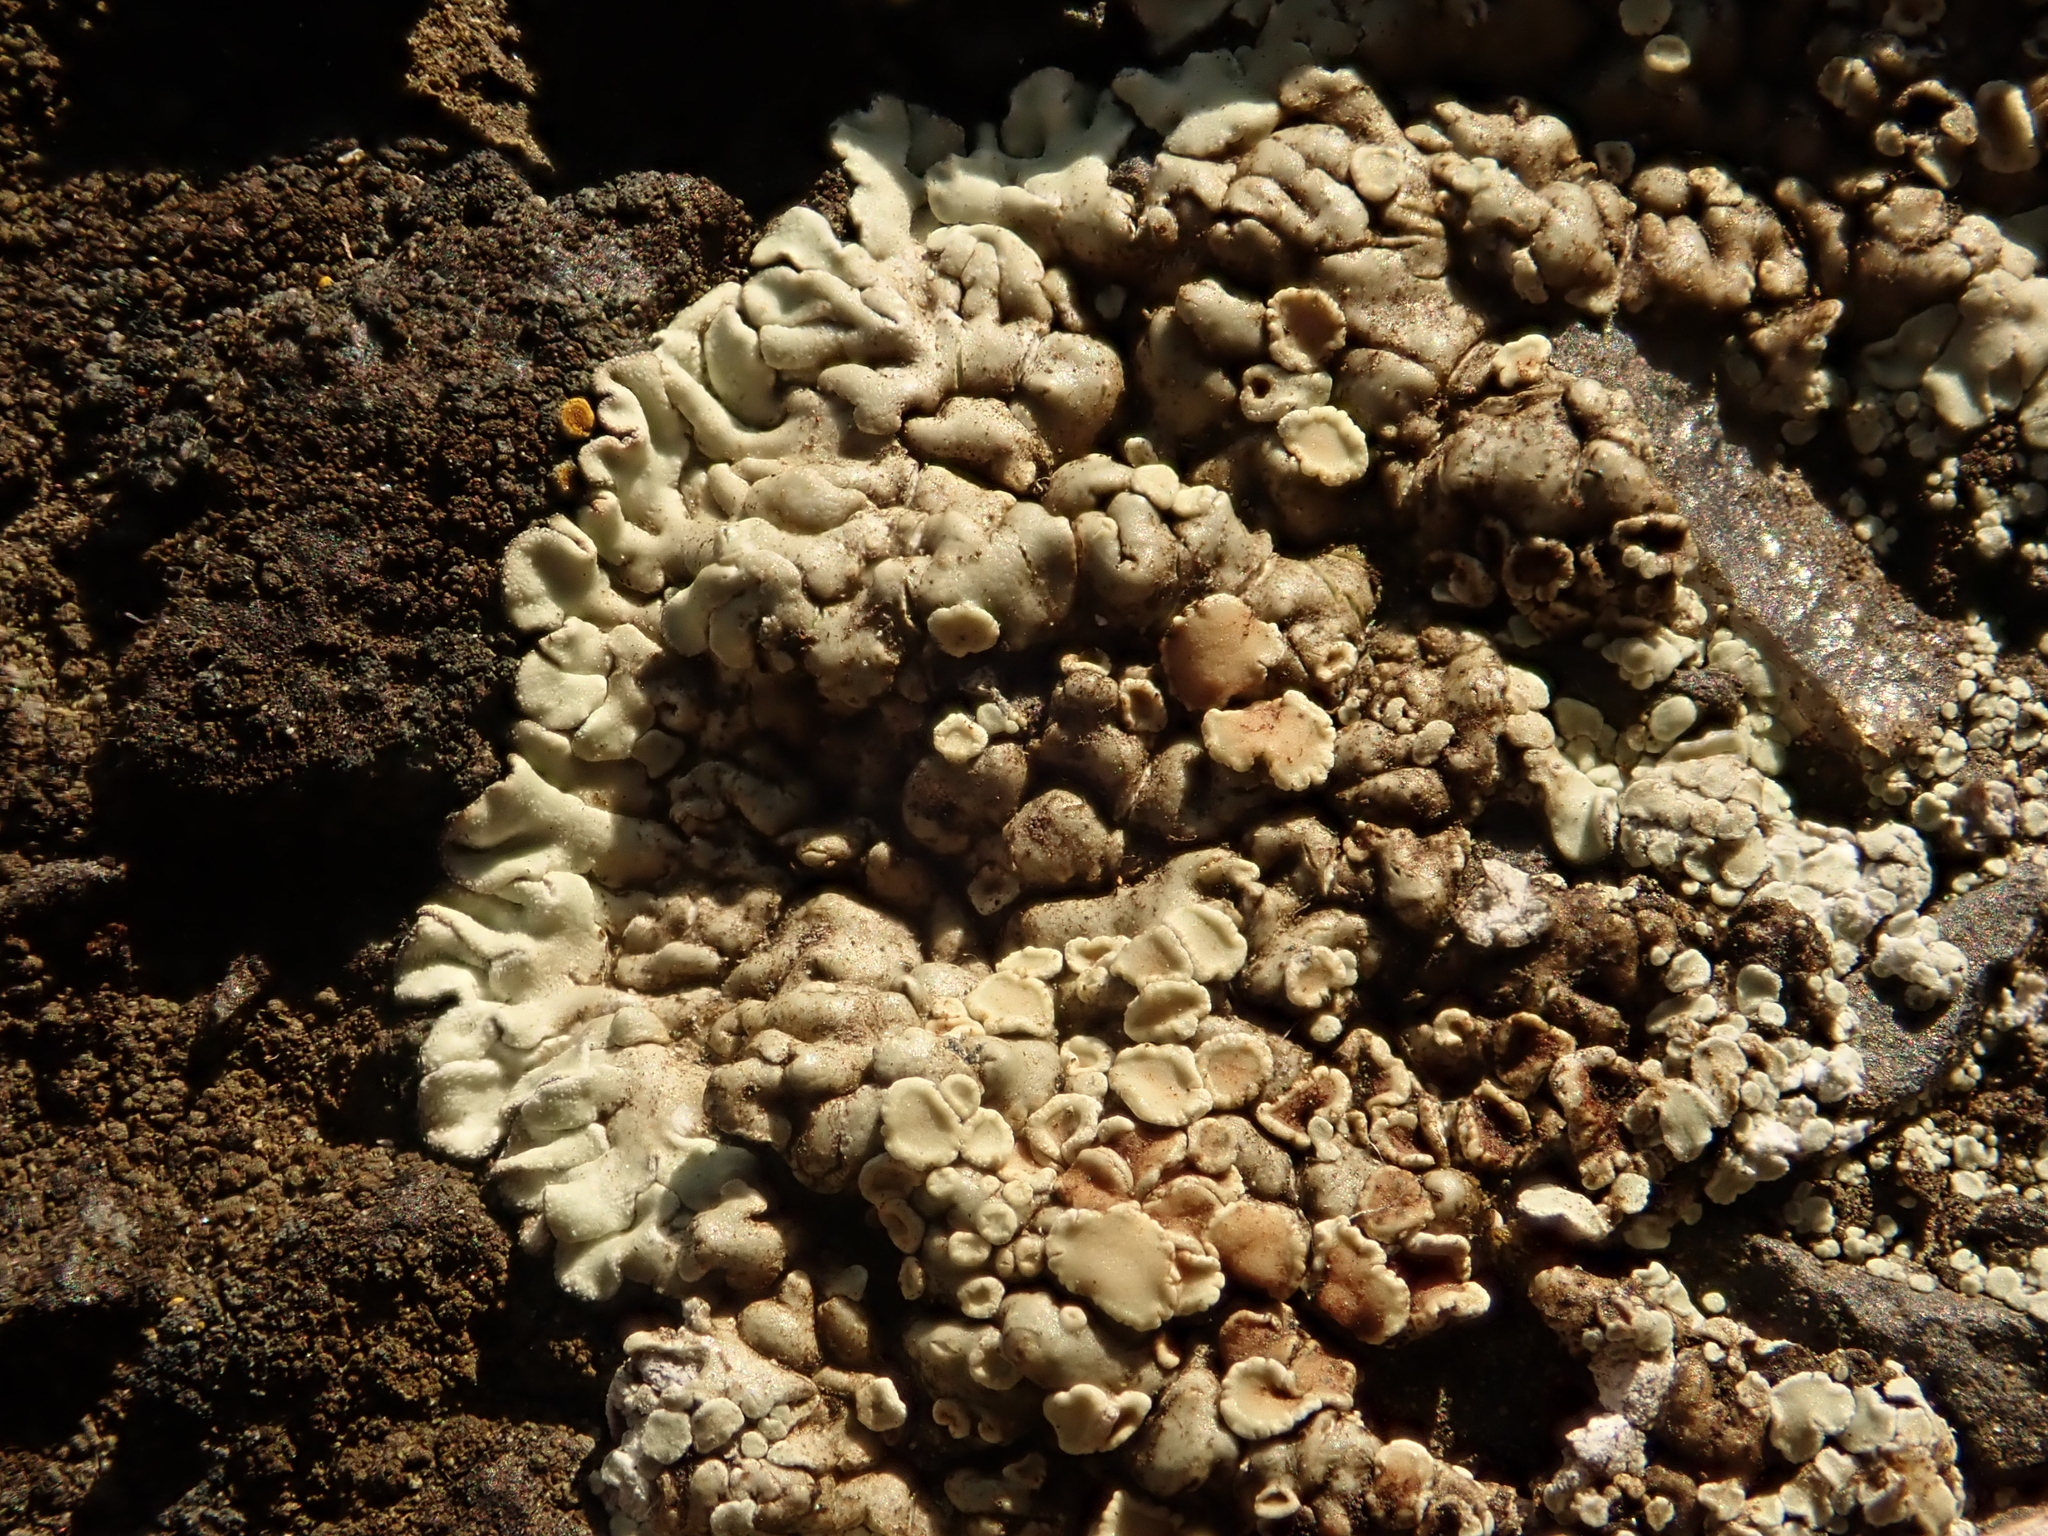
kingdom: Fungi
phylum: Ascomycota
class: Lecanoromycetes
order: Lecanorales
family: Lecanoraceae
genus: Protoparmeliopsis
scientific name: Protoparmeliopsis muralis
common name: Stonewall rim lichen
